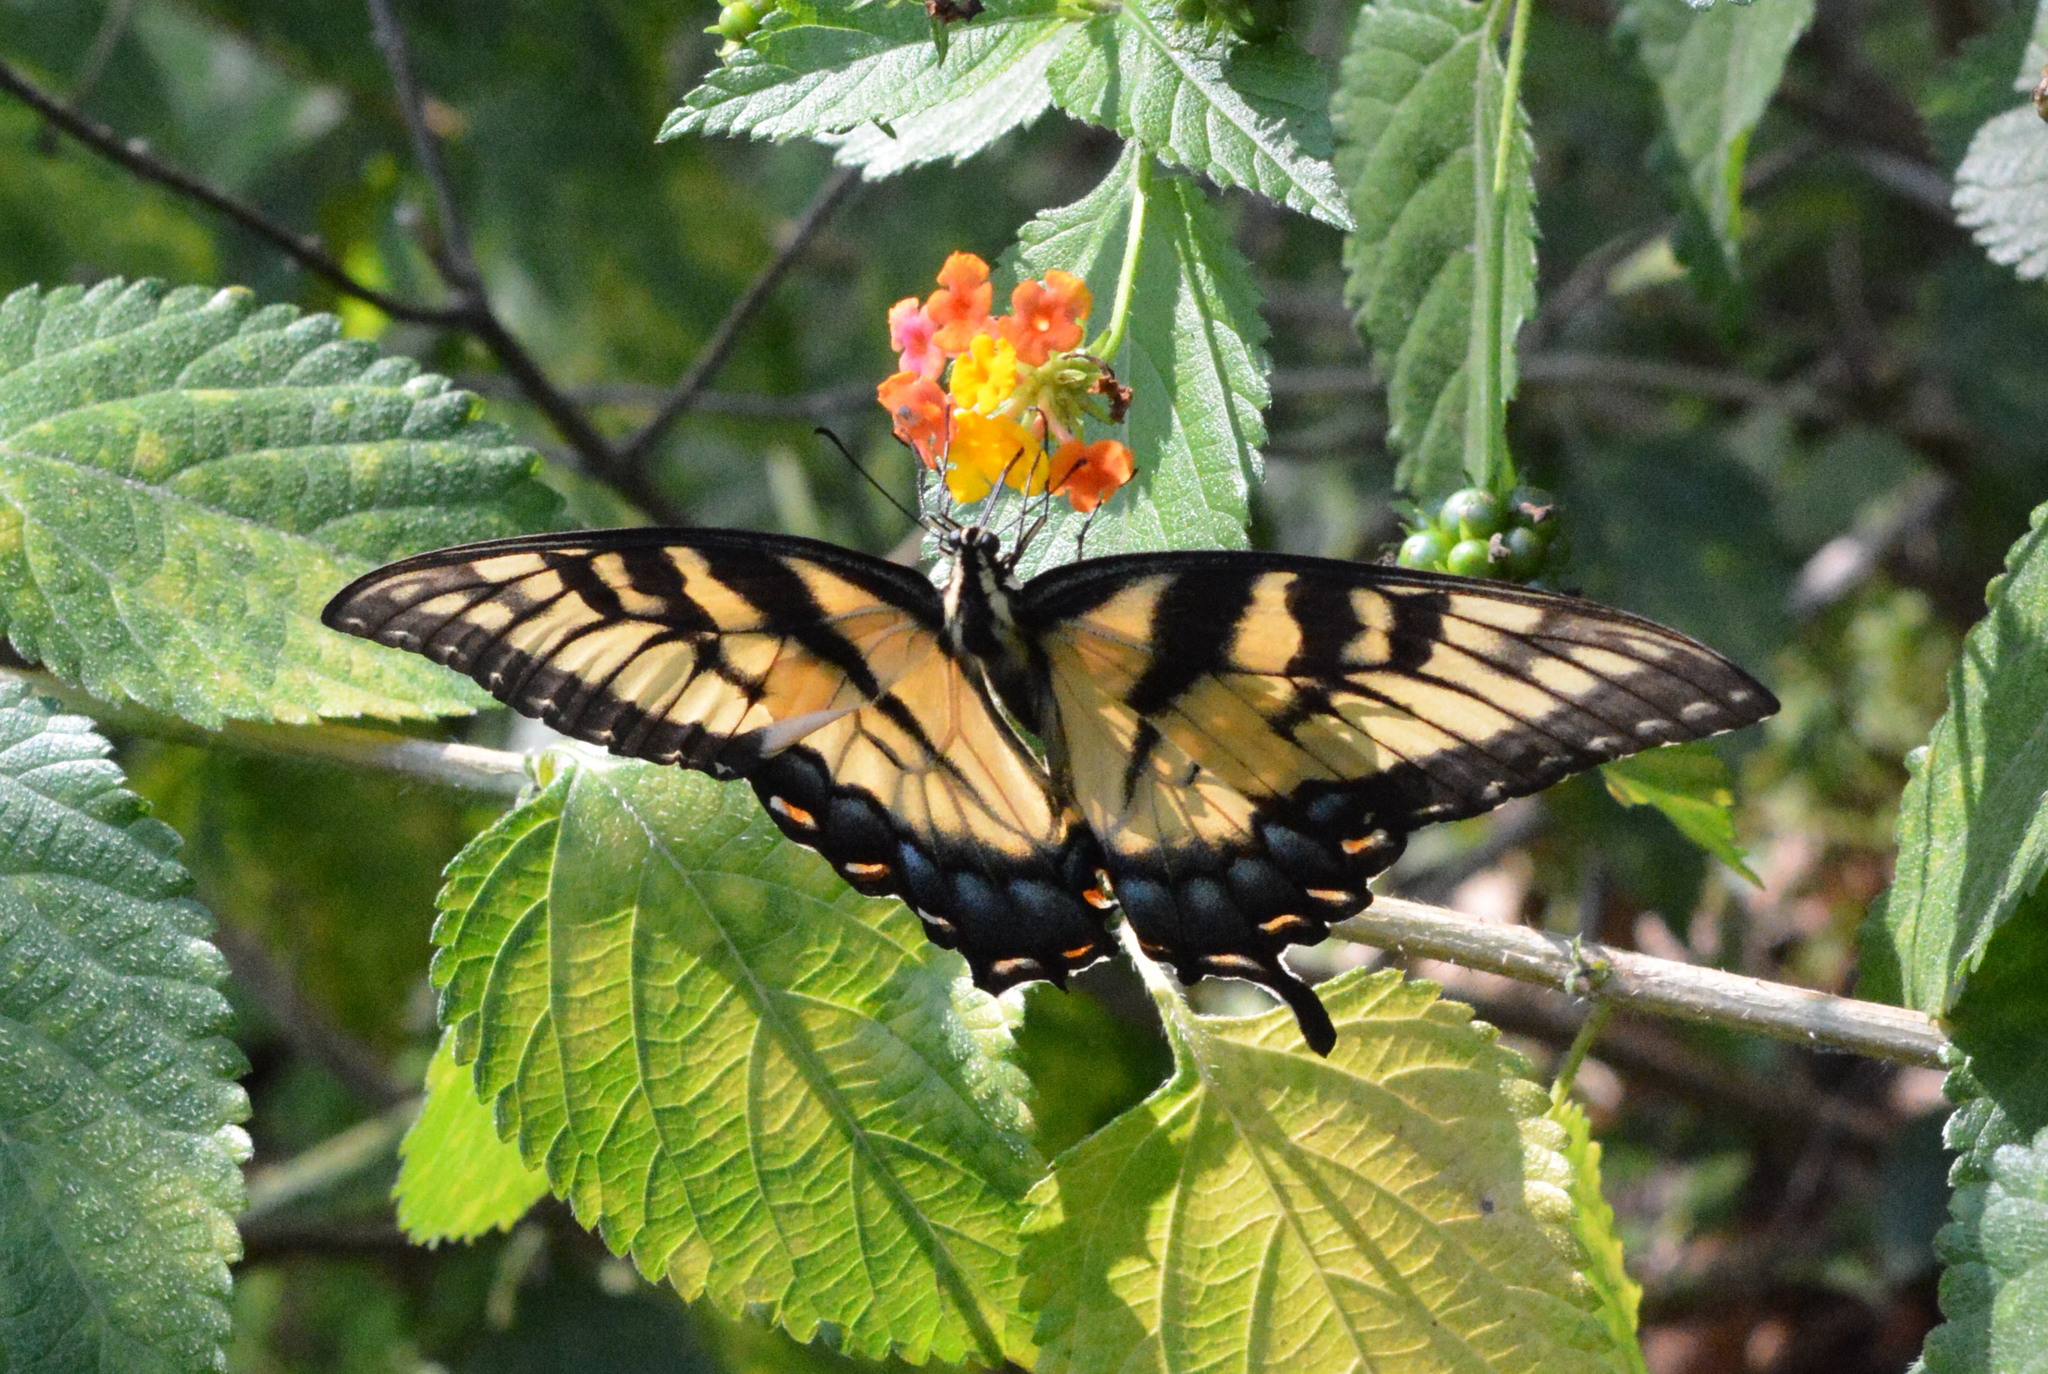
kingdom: Animalia
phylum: Arthropoda
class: Insecta
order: Lepidoptera
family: Papilionidae
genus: Papilio
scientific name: Papilio glaucus
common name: Tiger swallowtail
